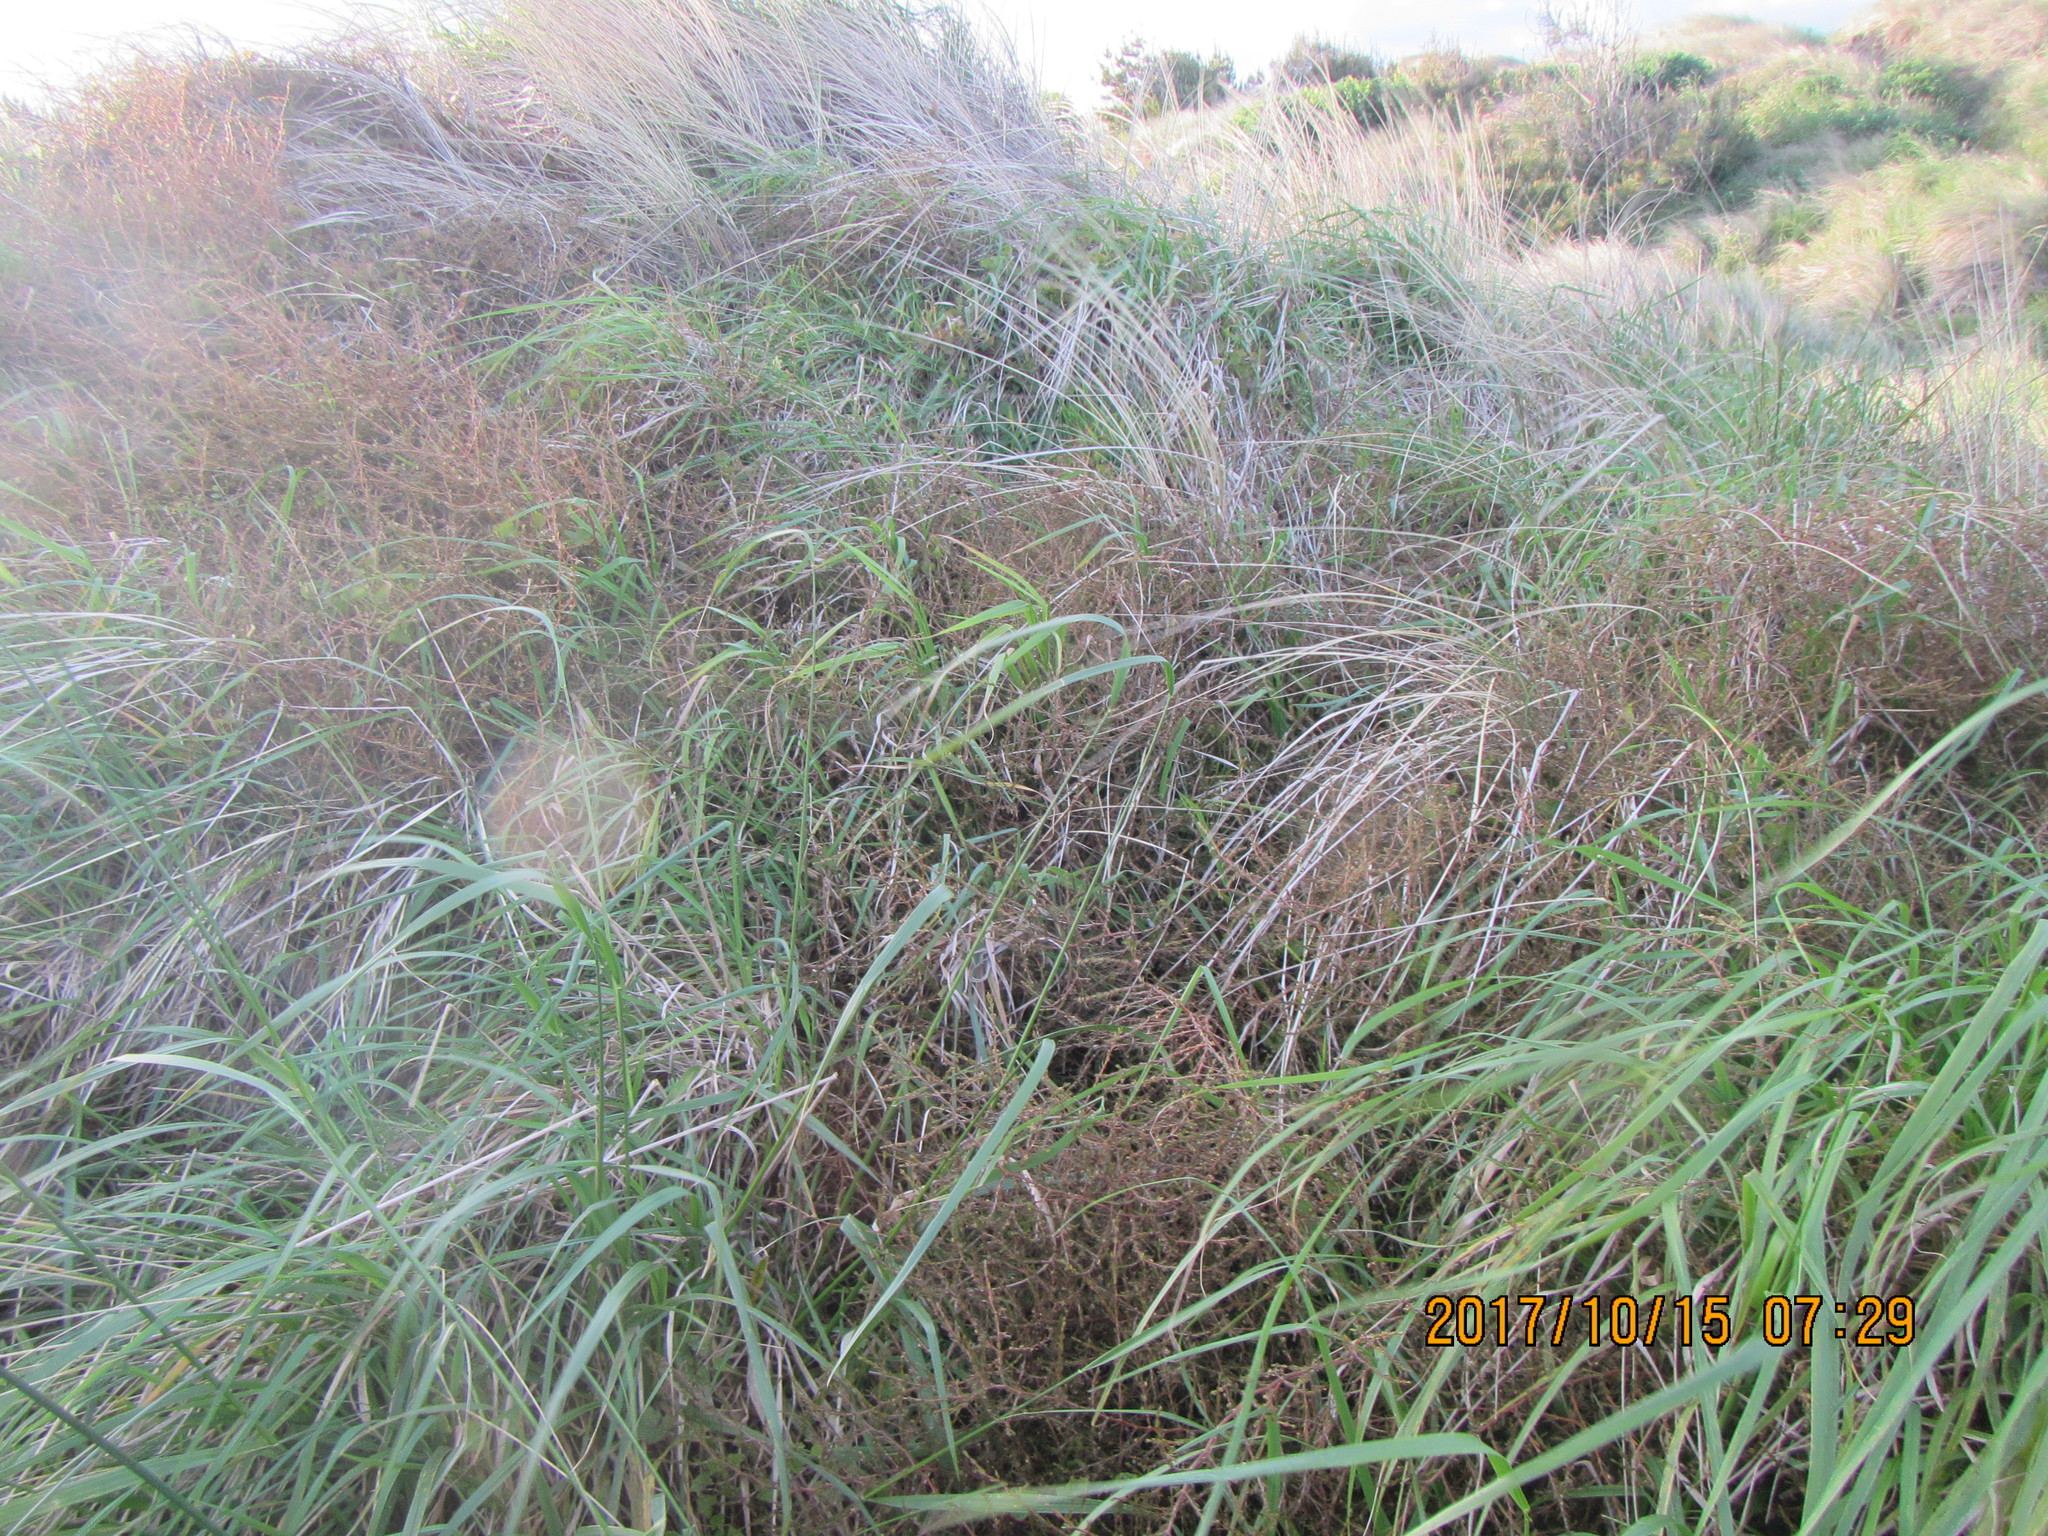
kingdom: Plantae
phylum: Tracheophyta
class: Magnoliopsida
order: Gentianales
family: Rubiaceae
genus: Coprosma
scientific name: Coprosma acerosa
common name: Sand coprosma
